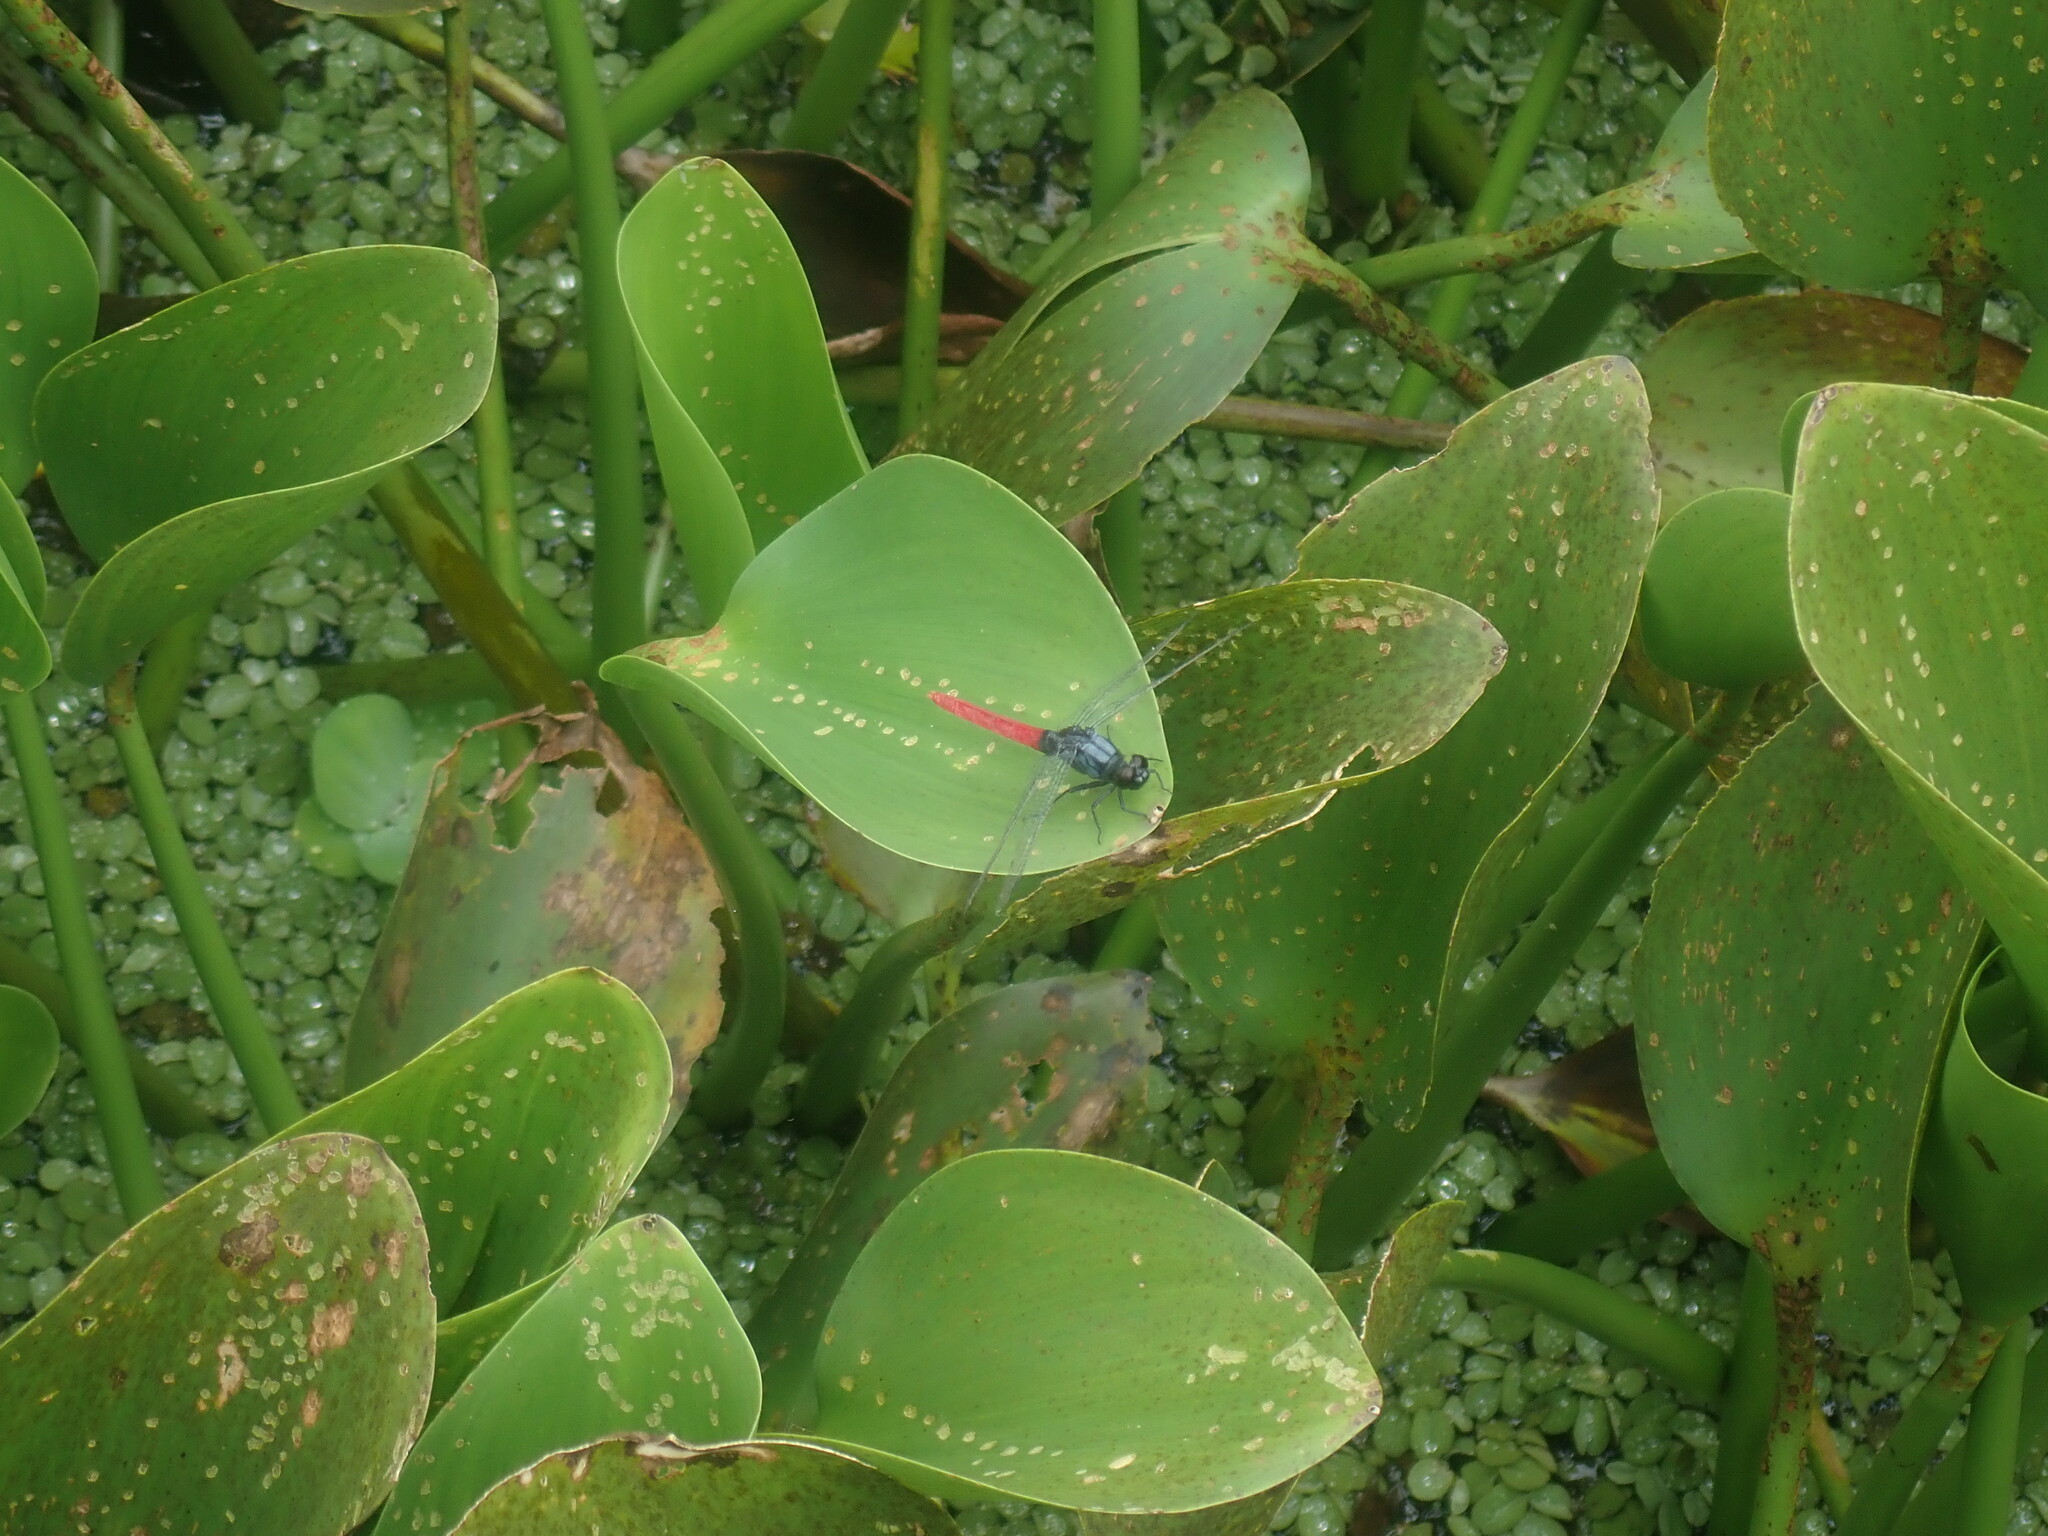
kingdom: Animalia
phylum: Arthropoda
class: Insecta
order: Odonata
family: Libellulidae
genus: Erythemis
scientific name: Erythemis peruviana
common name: Flame-tailed pondhawk
